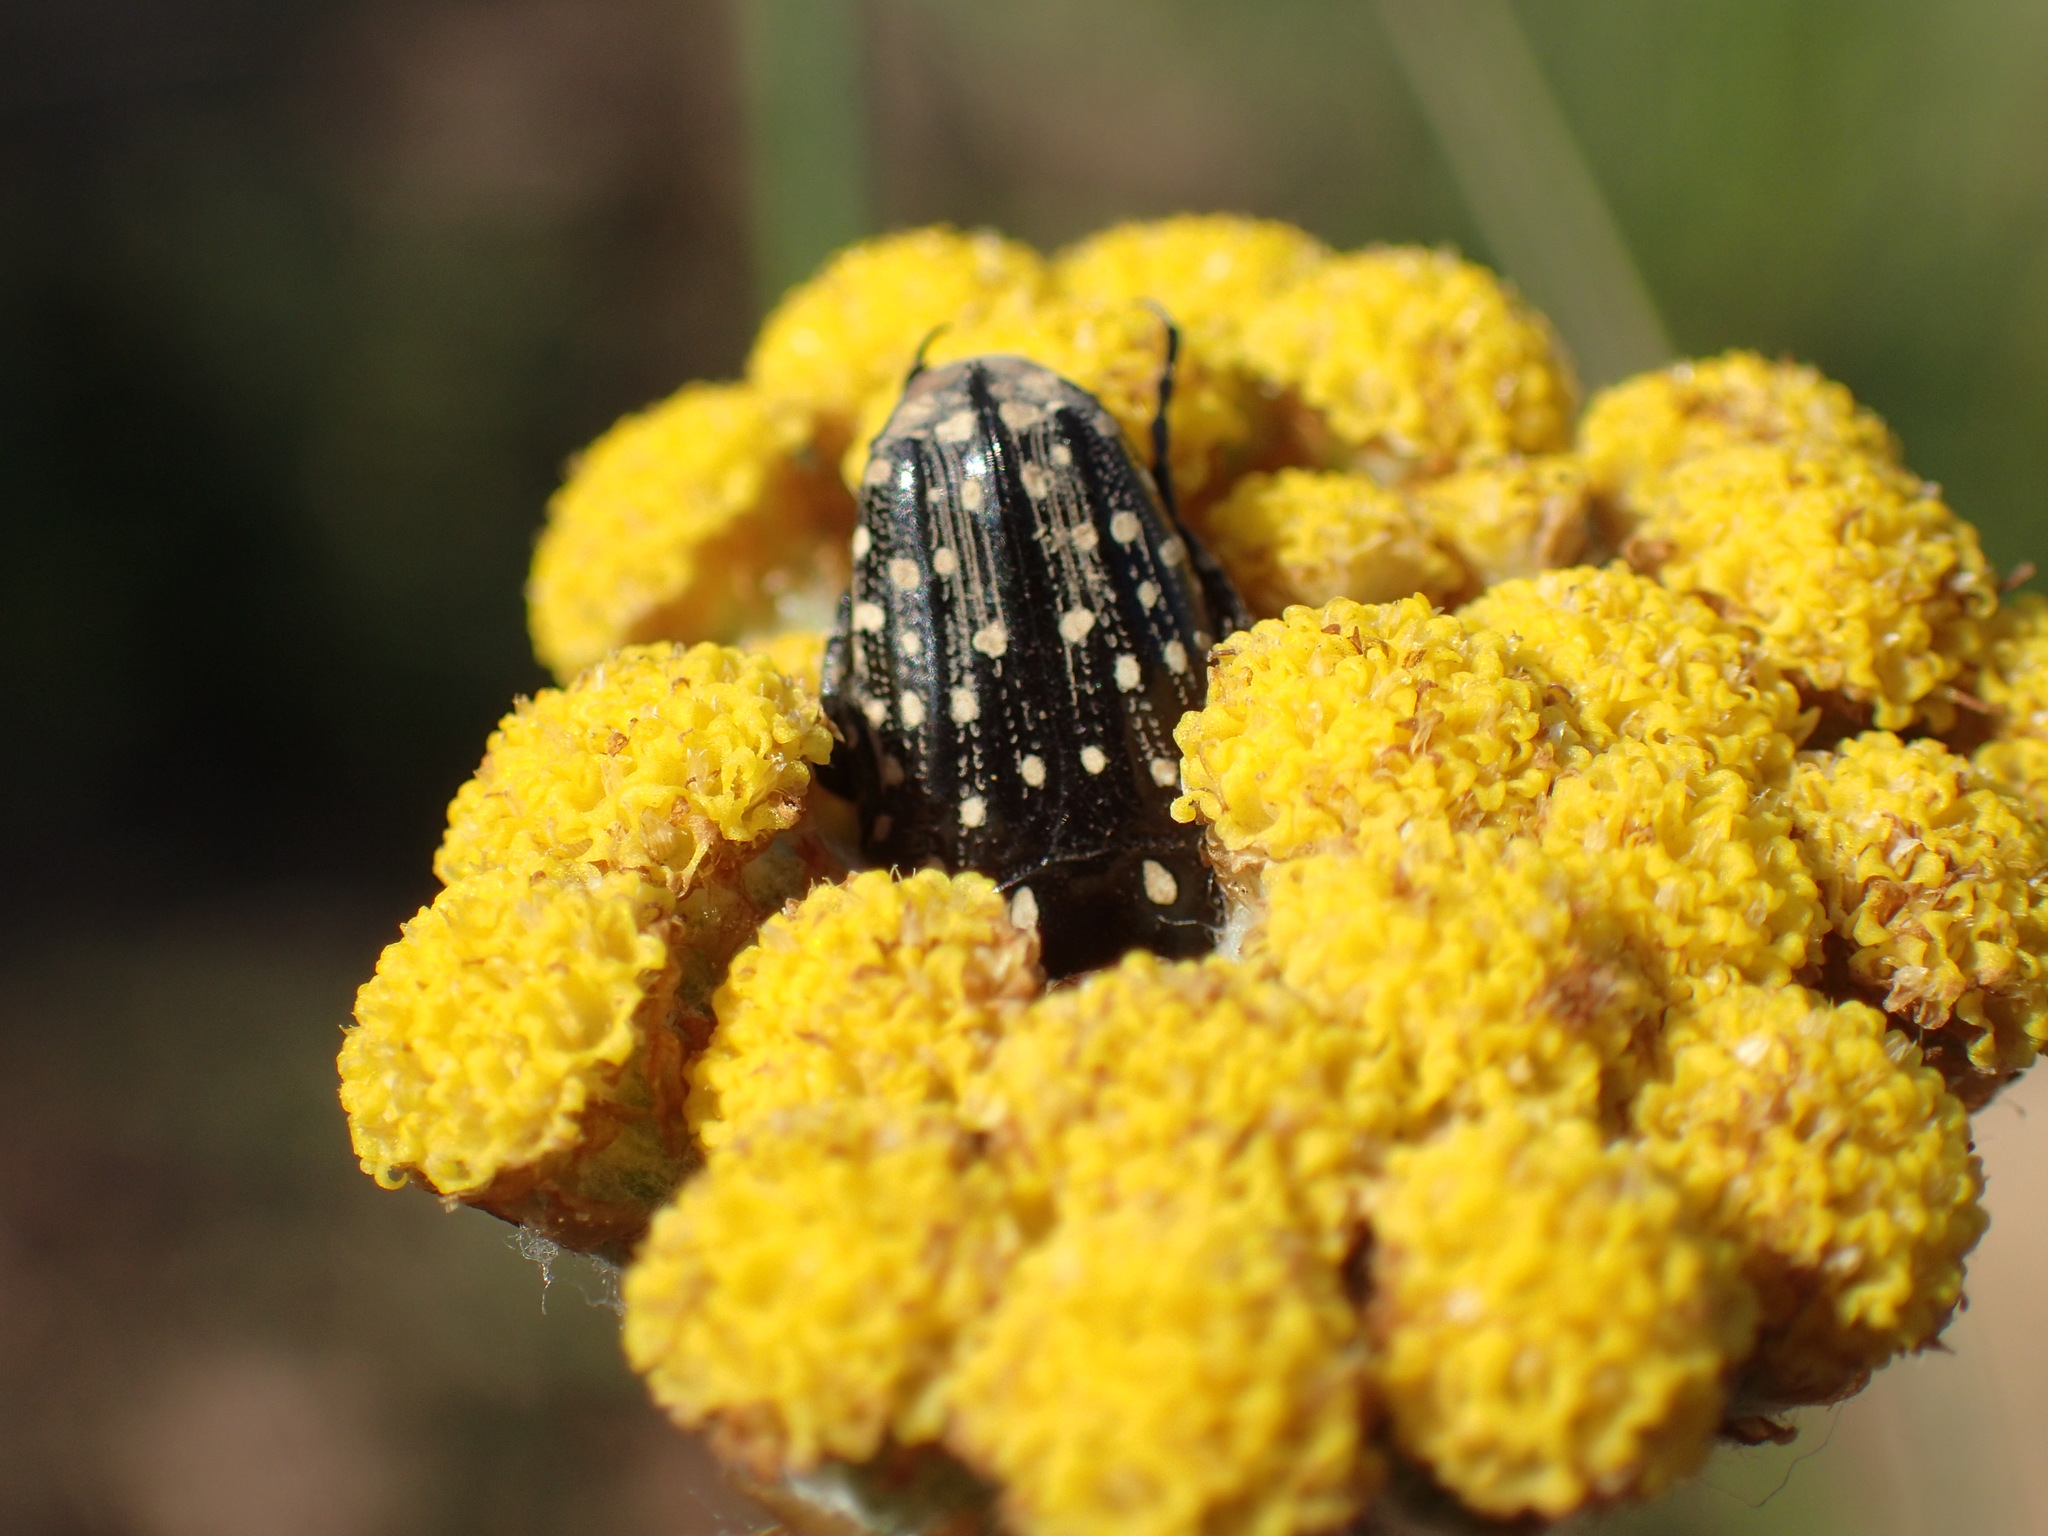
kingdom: Animalia
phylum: Arthropoda
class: Insecta
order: Coleoptera
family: Scarabaeidae
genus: Oxythyrea
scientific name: Oxythyrea
